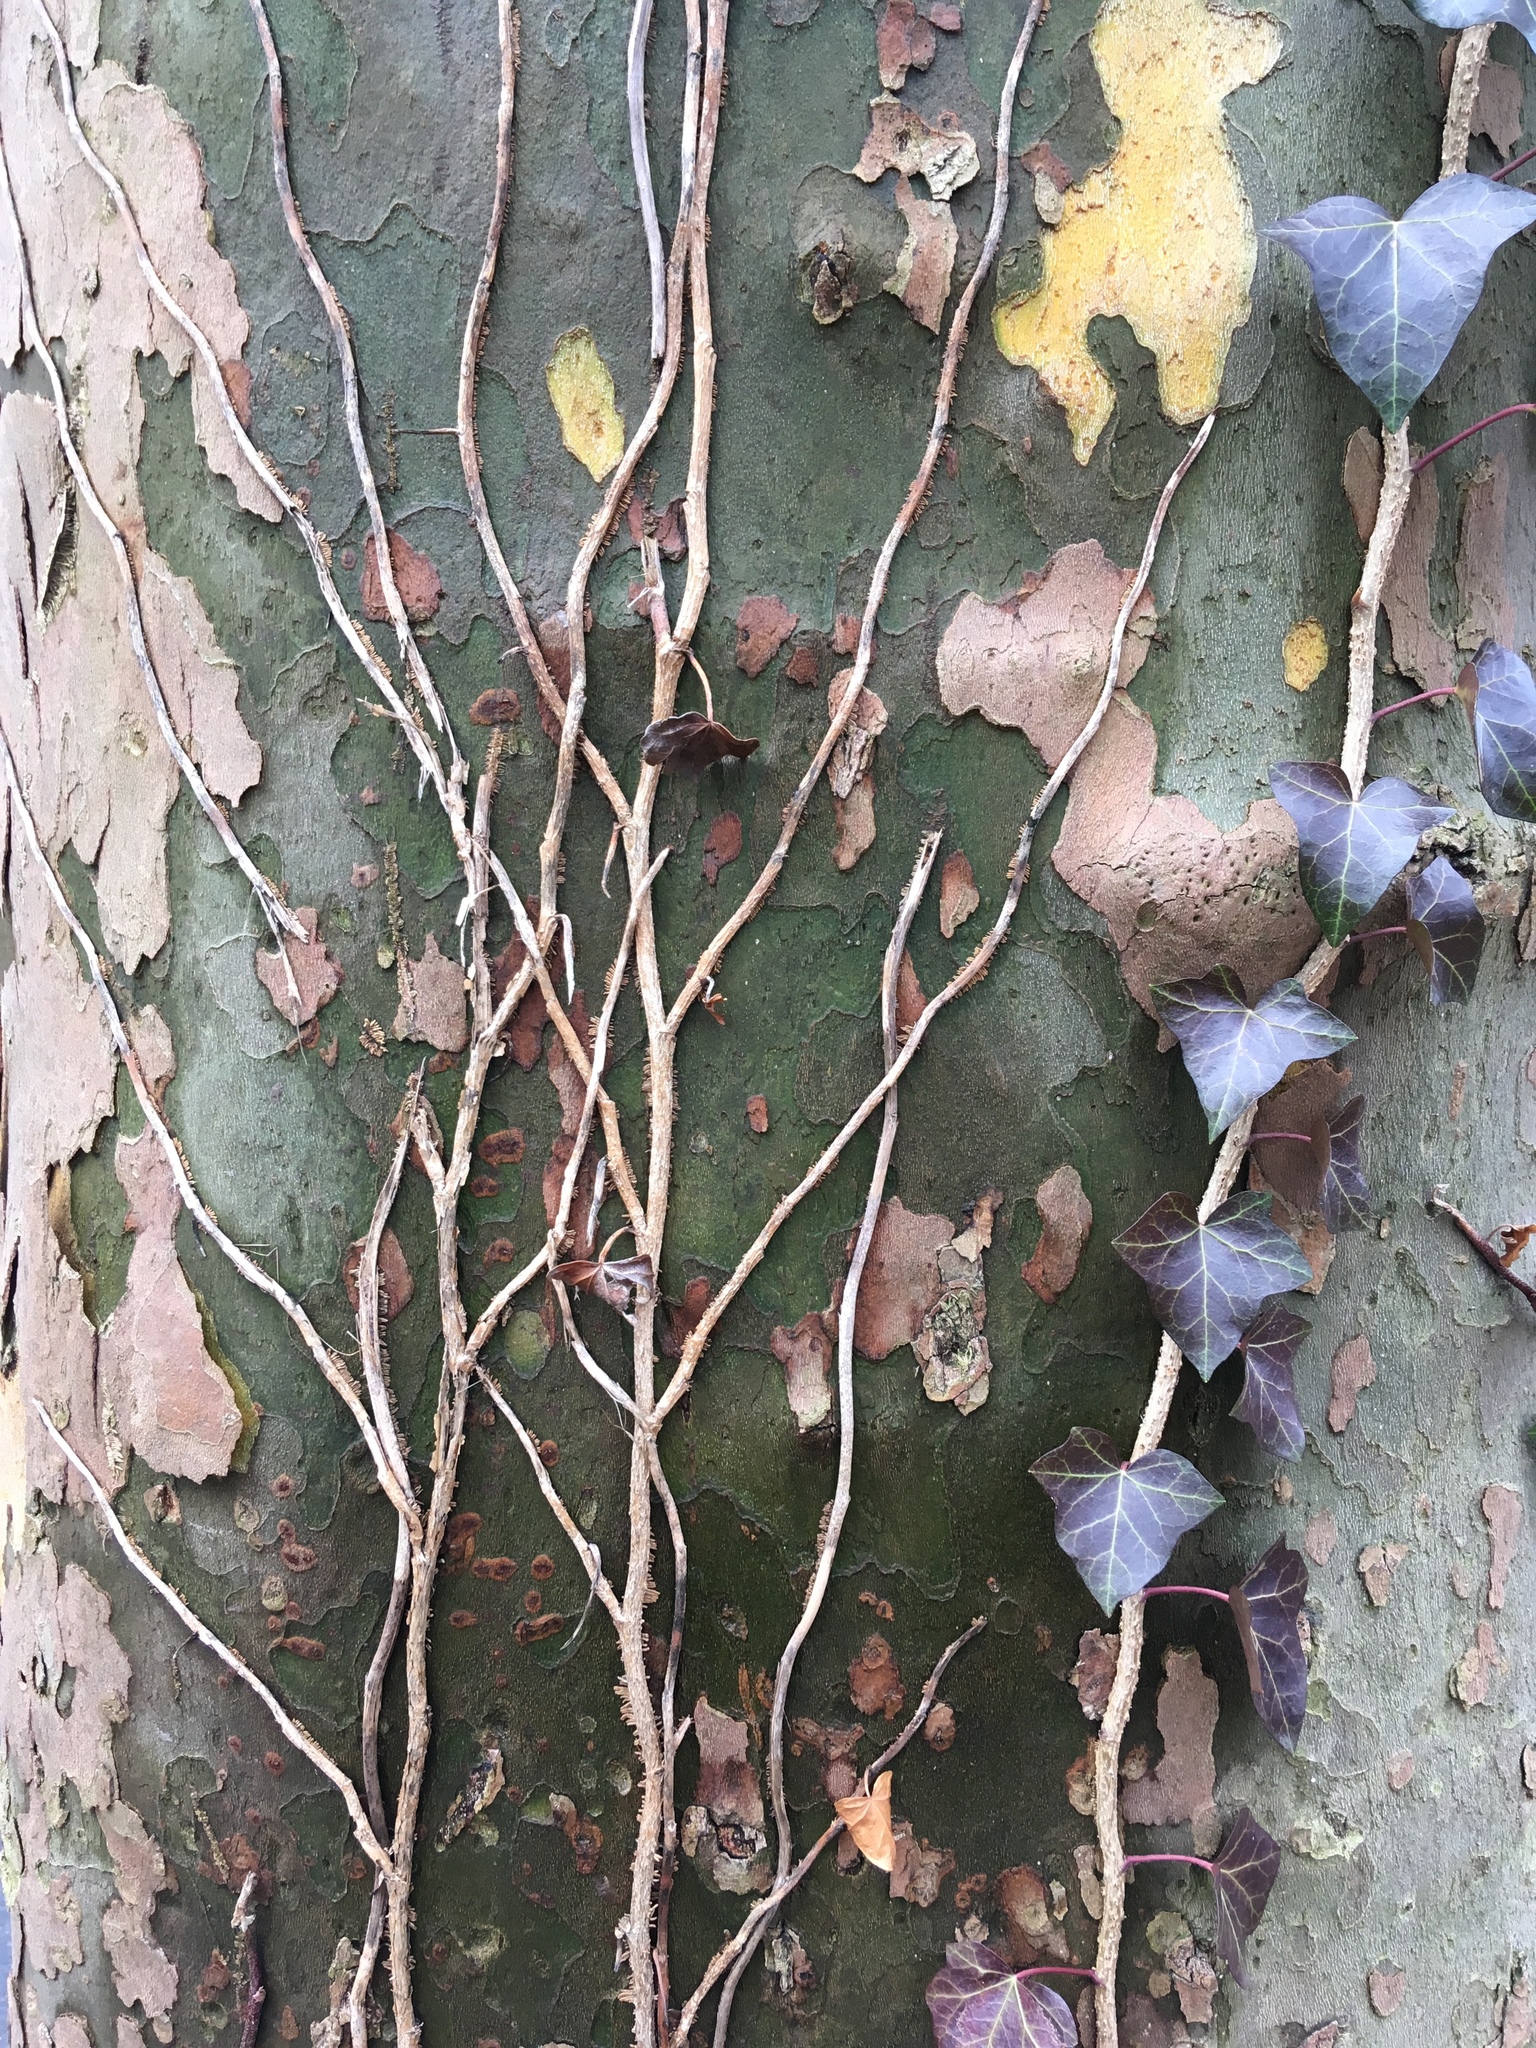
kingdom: Plantae
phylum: Tracheophyta
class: Magnoliopsida
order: Apiales
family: Araliaceae
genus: Hedera
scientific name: Hedera helix
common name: Ivy
